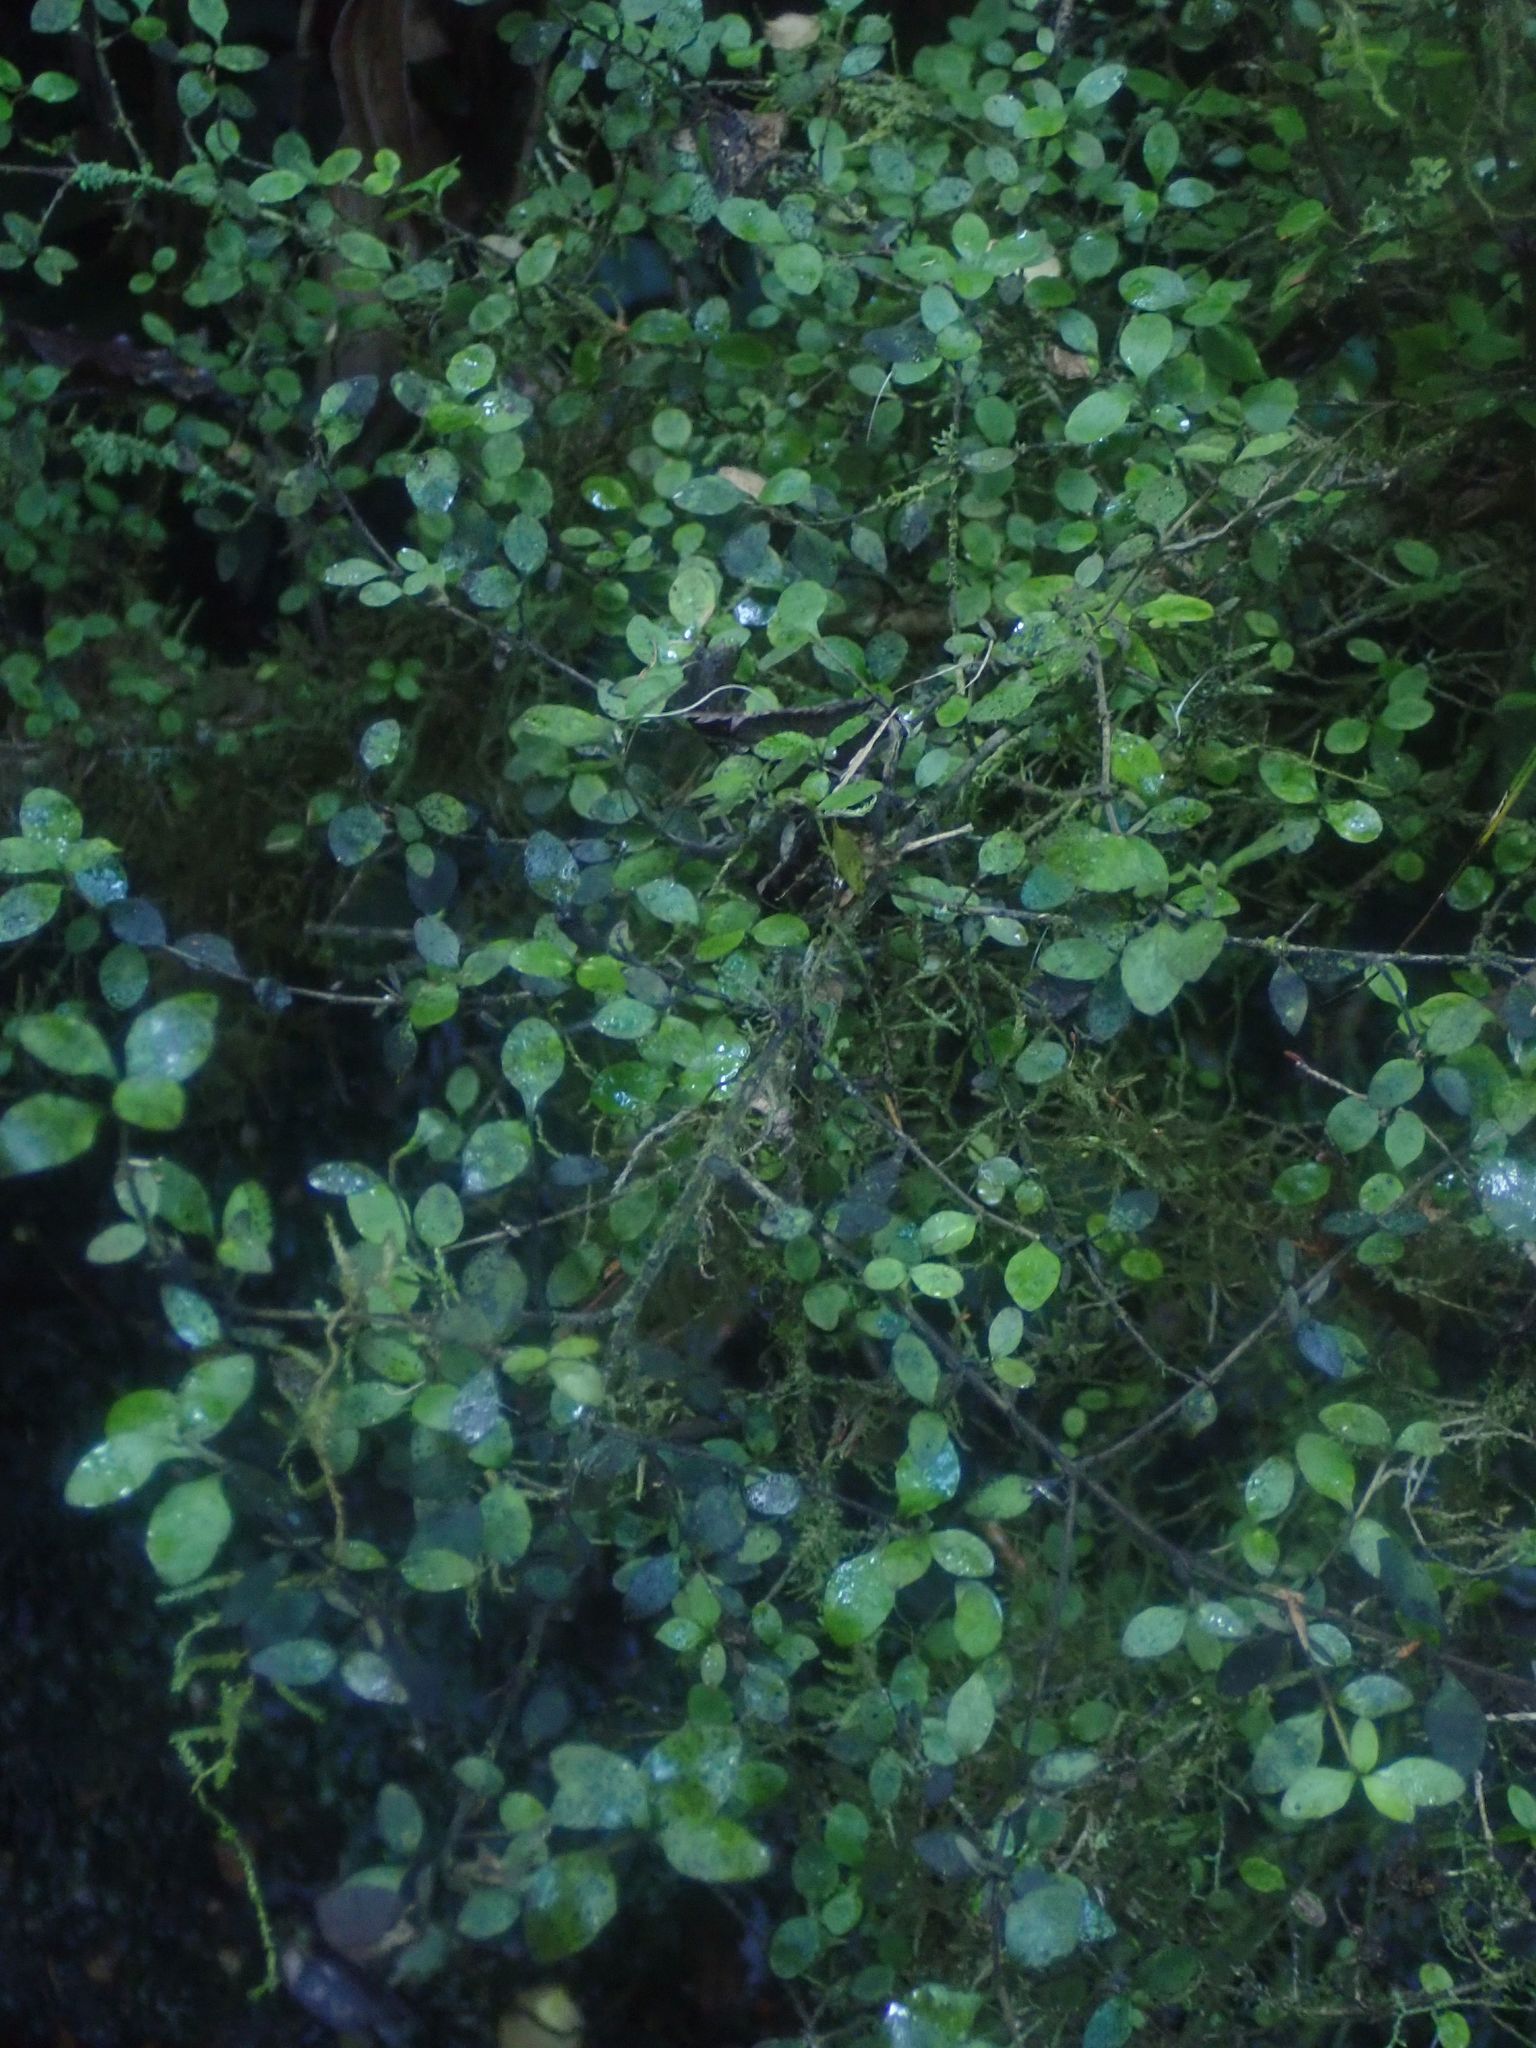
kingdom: Plantae
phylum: Tracheophyta
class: Magnoliopsida
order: Gentianales
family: Rubiaceae
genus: Coprosma
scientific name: Coprosma rhamnoides
